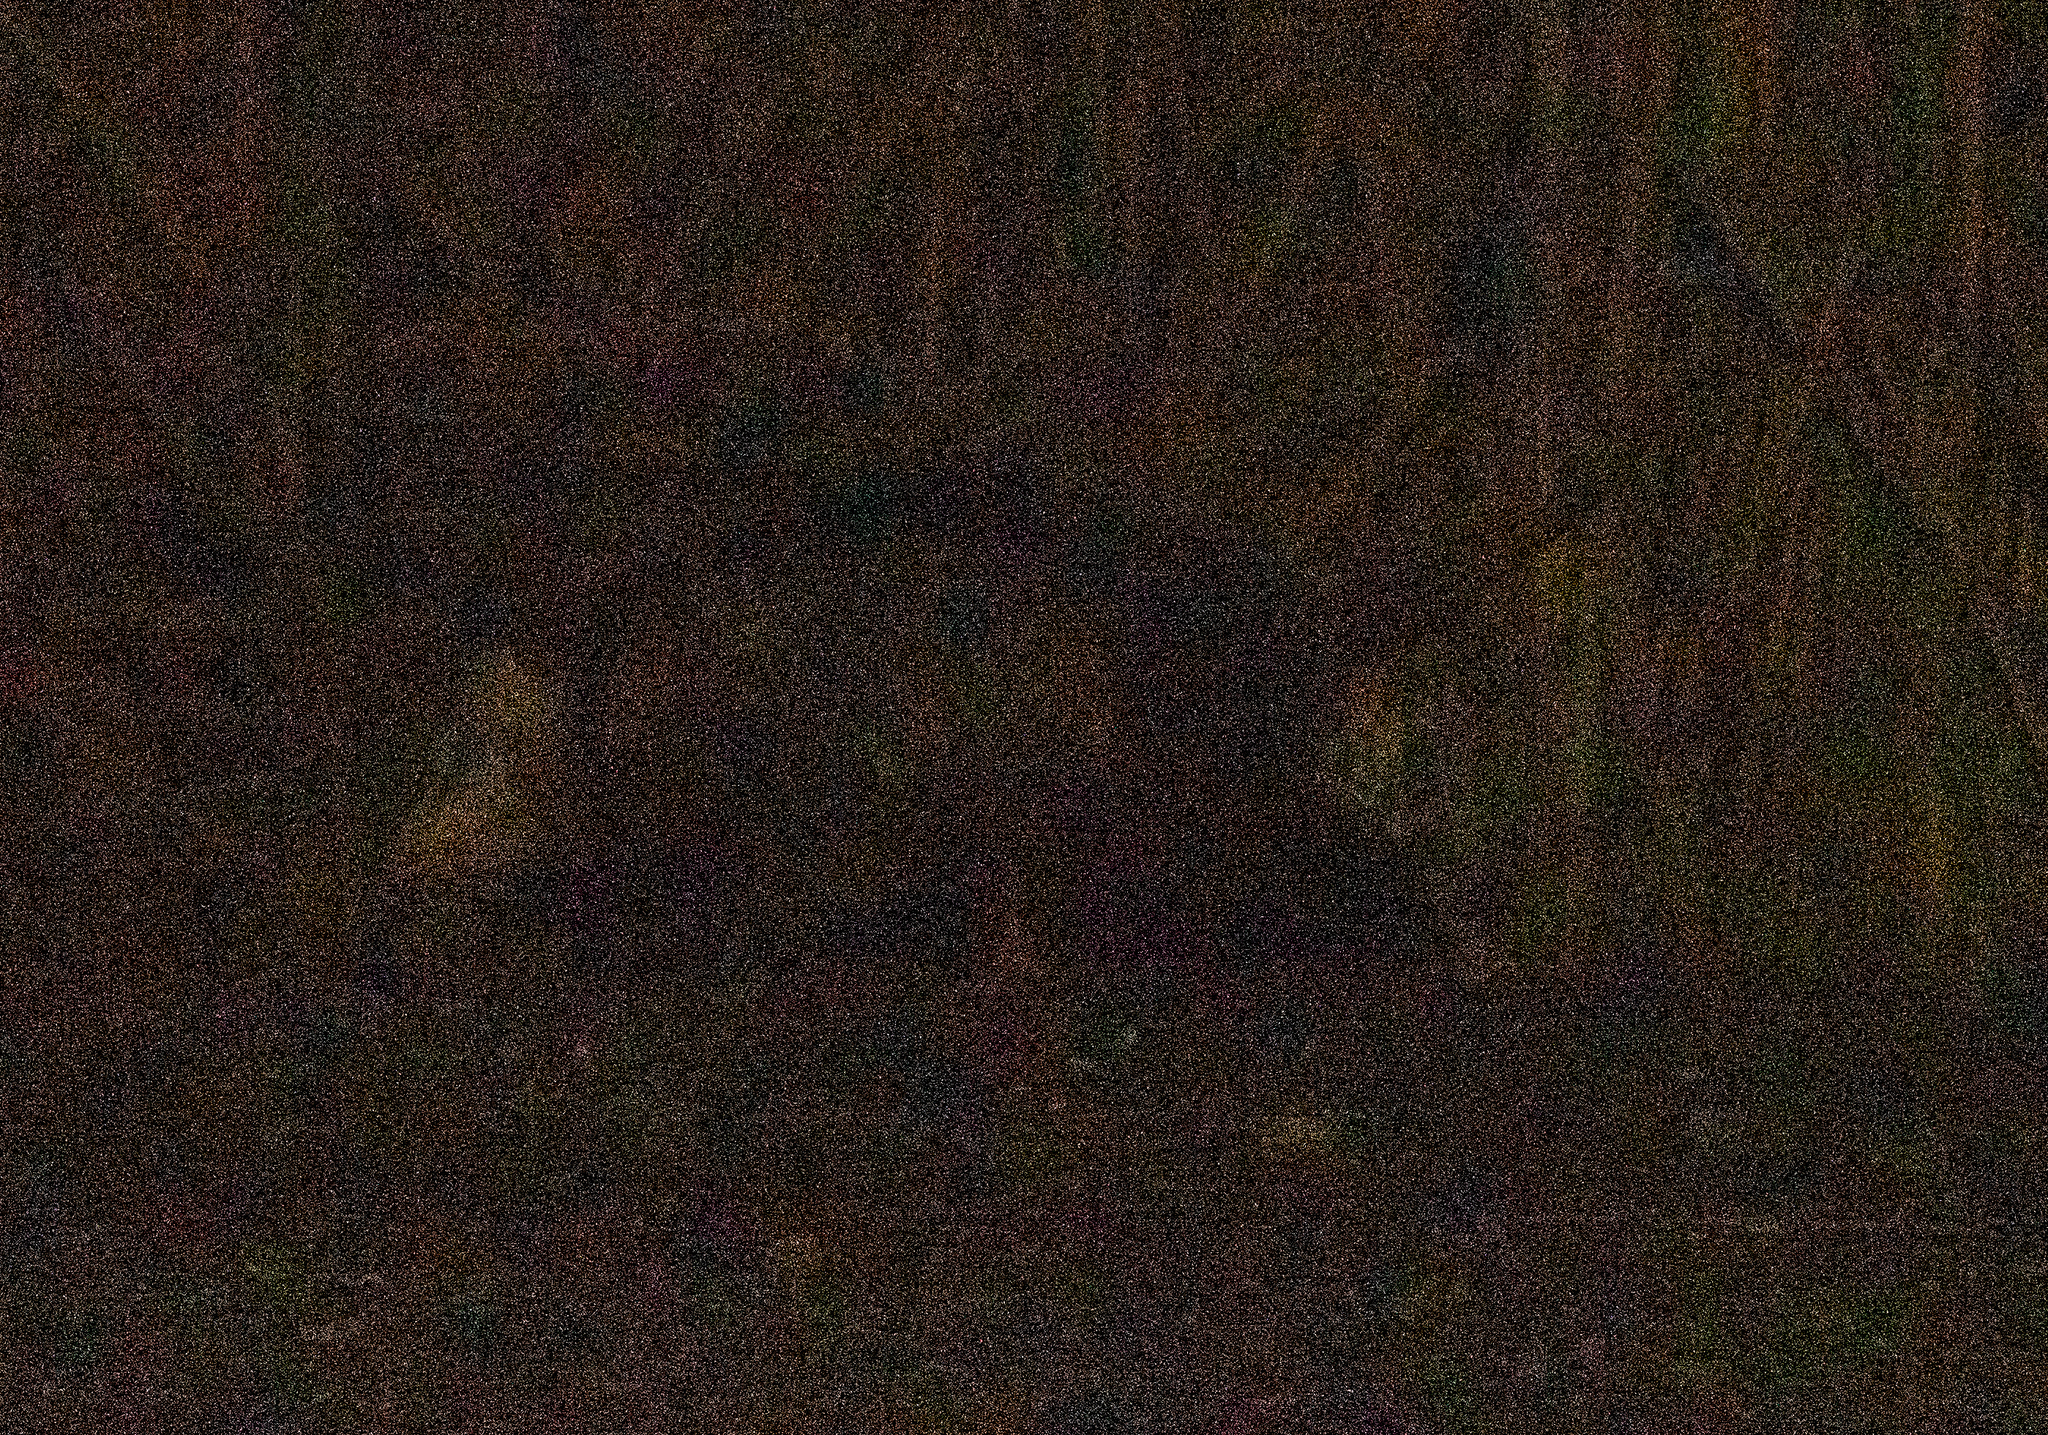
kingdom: Animalia
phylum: Chordata
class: Mammalia
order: Didelphimorphia
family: Didelphidae
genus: Didelphis
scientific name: Didelphis virginiana
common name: Virginia opossum
